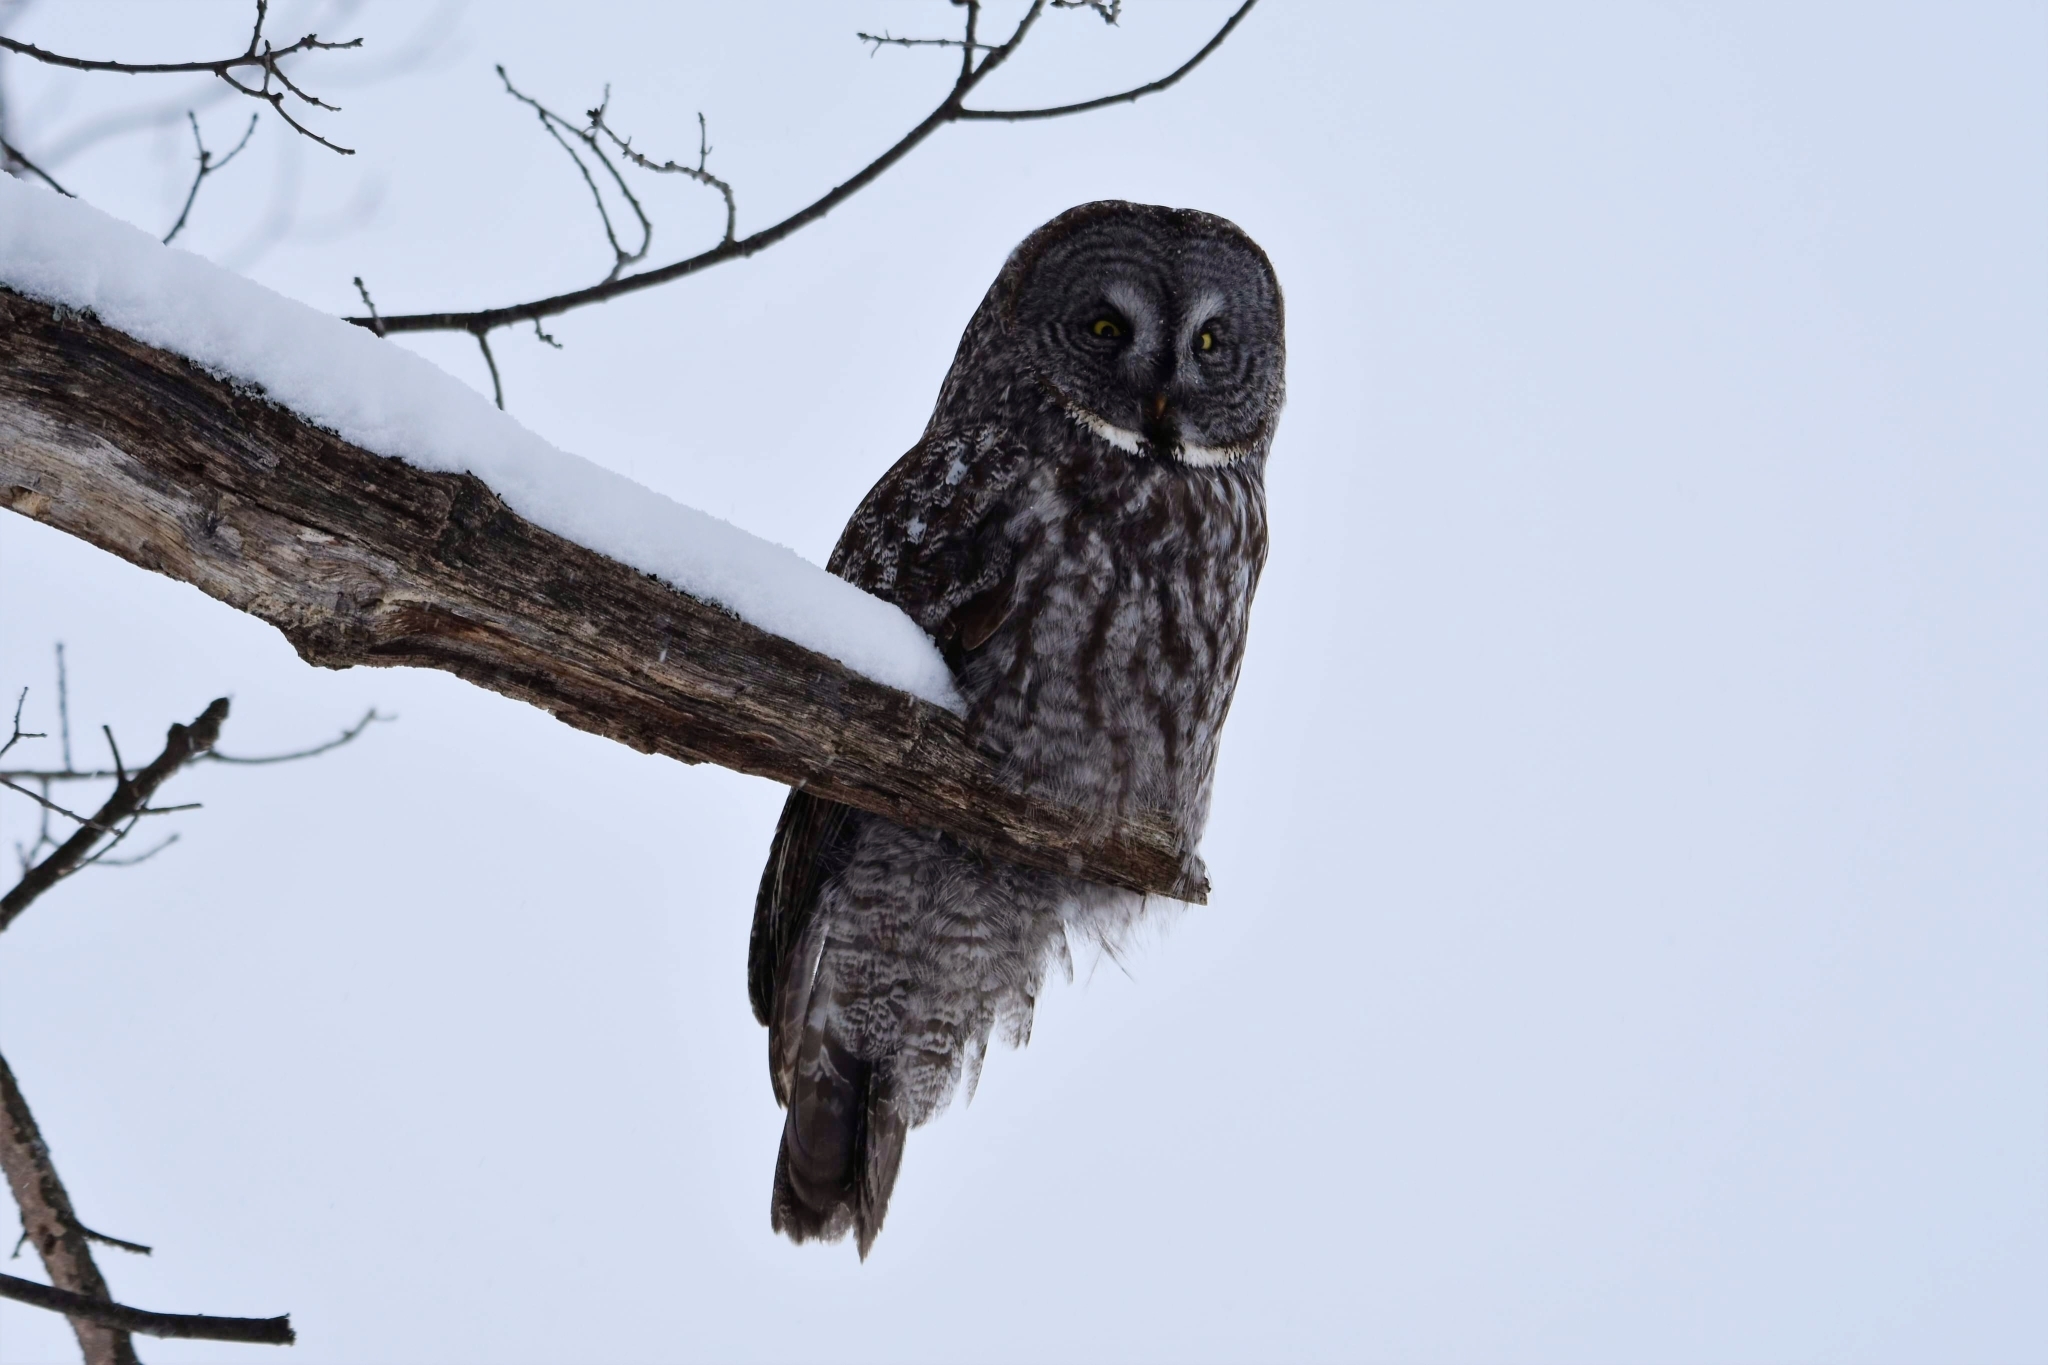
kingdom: Animalia
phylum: Chordata
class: Aves
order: Strigiformes
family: Strigidae
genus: Strix
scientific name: Strix nebulosa
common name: Great grey owl
